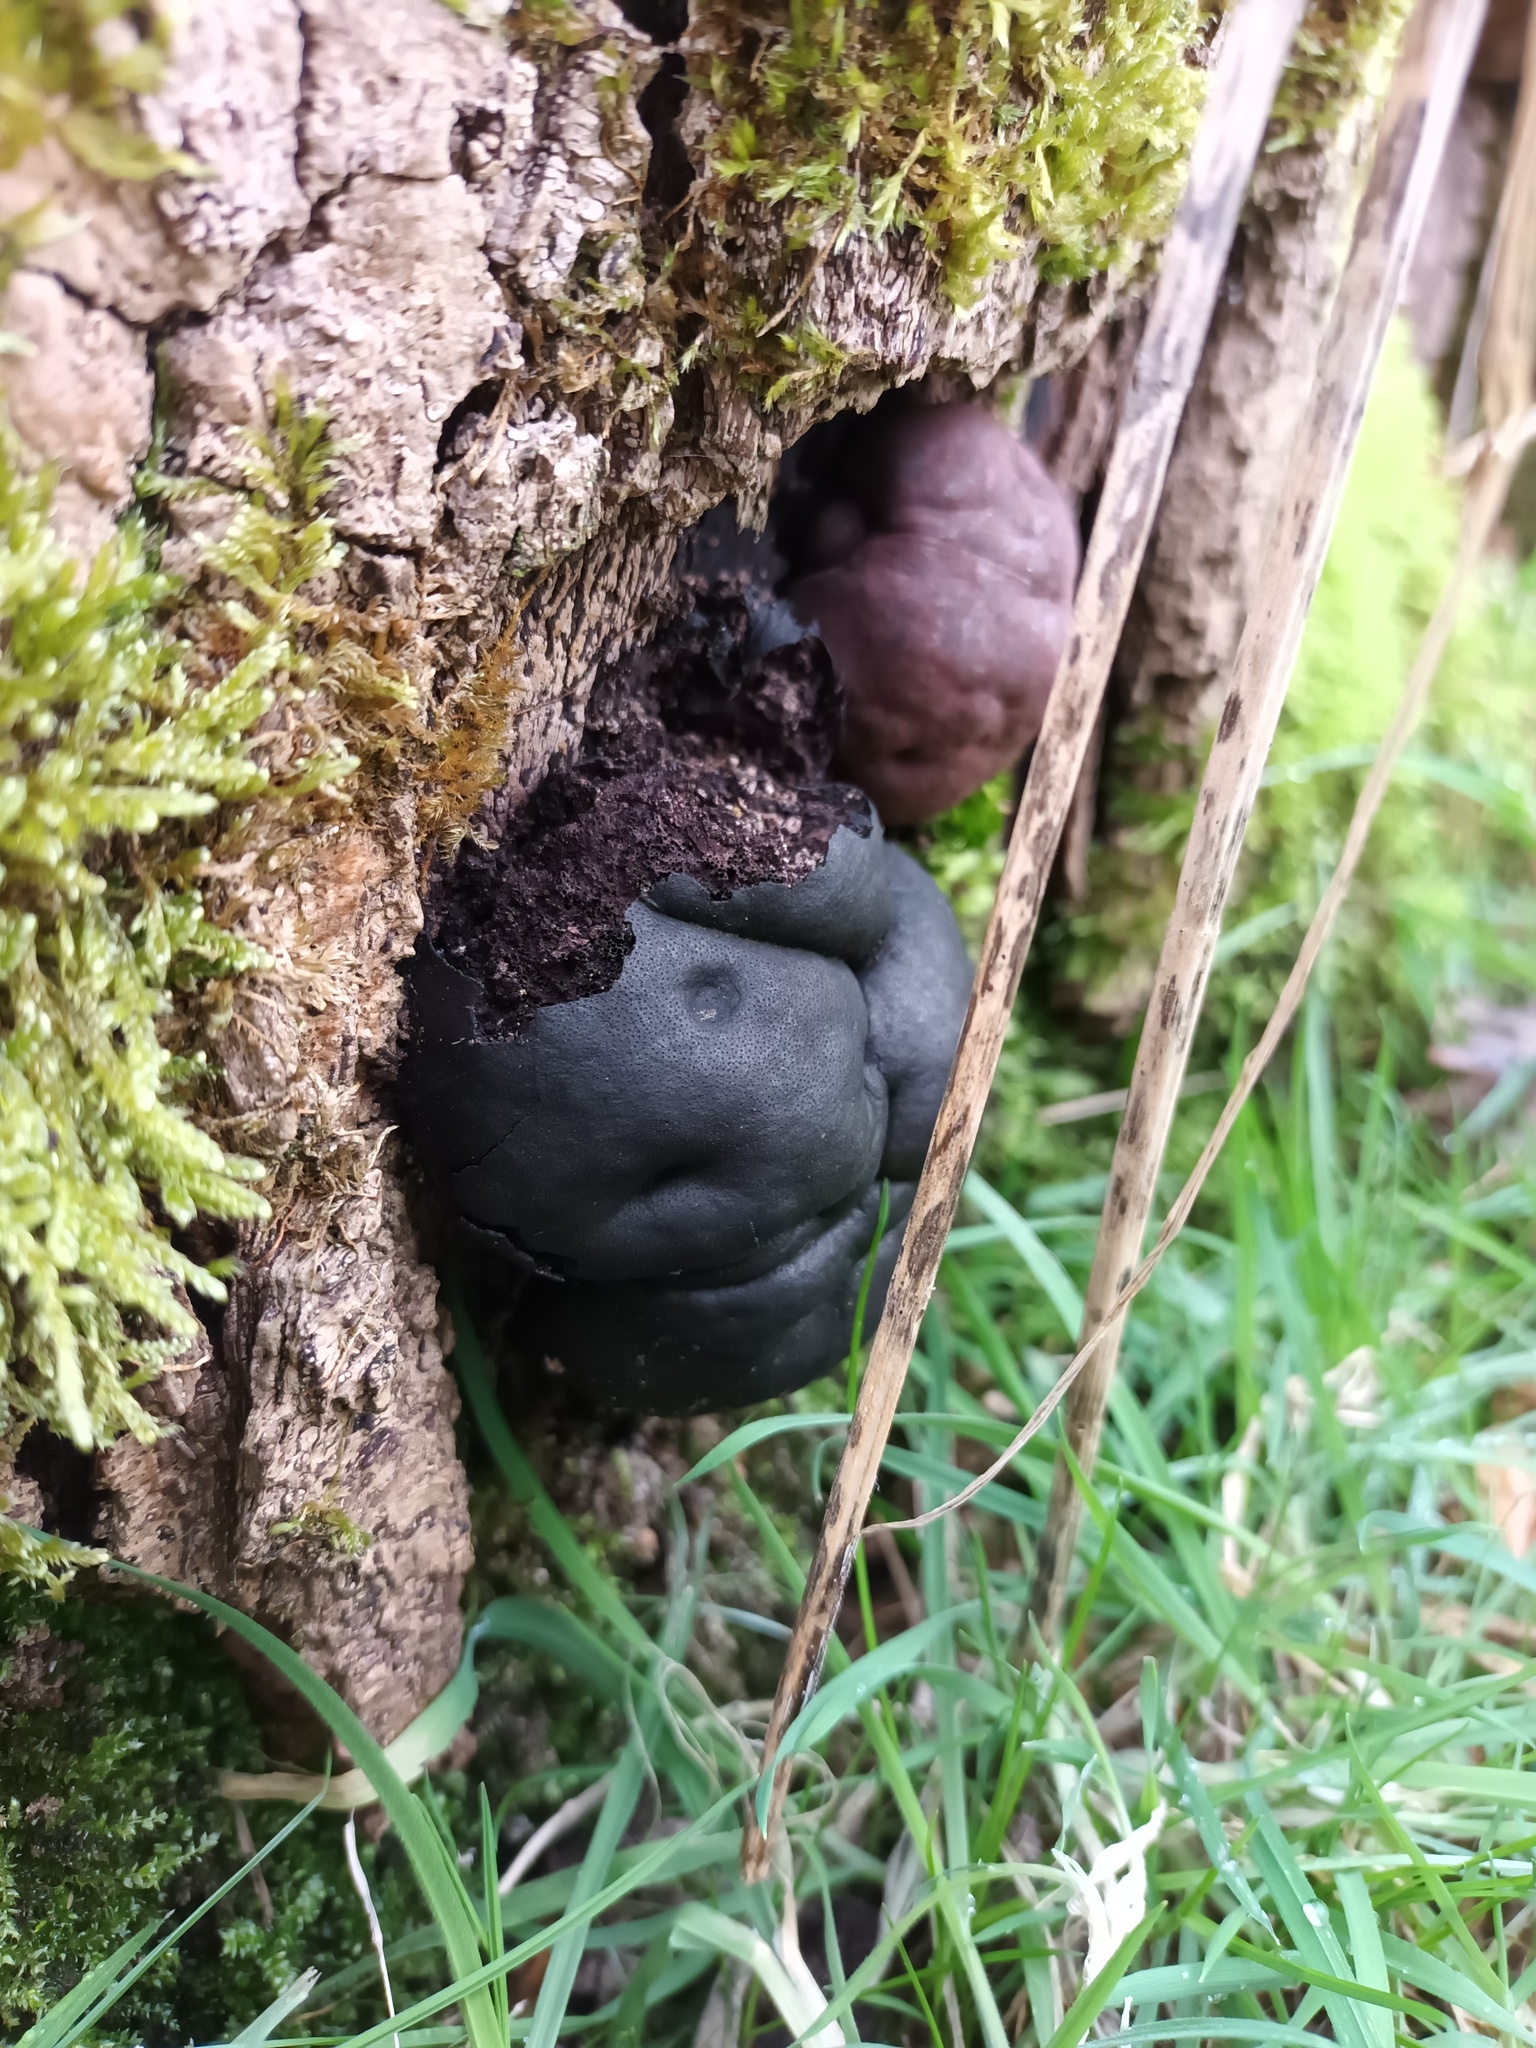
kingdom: Fungi
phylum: Ascomycota
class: Sordariomycetes
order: Xylariales
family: Hypoxylaceae
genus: Daldinia
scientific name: Daldinia concentrica
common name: Cramp balls
